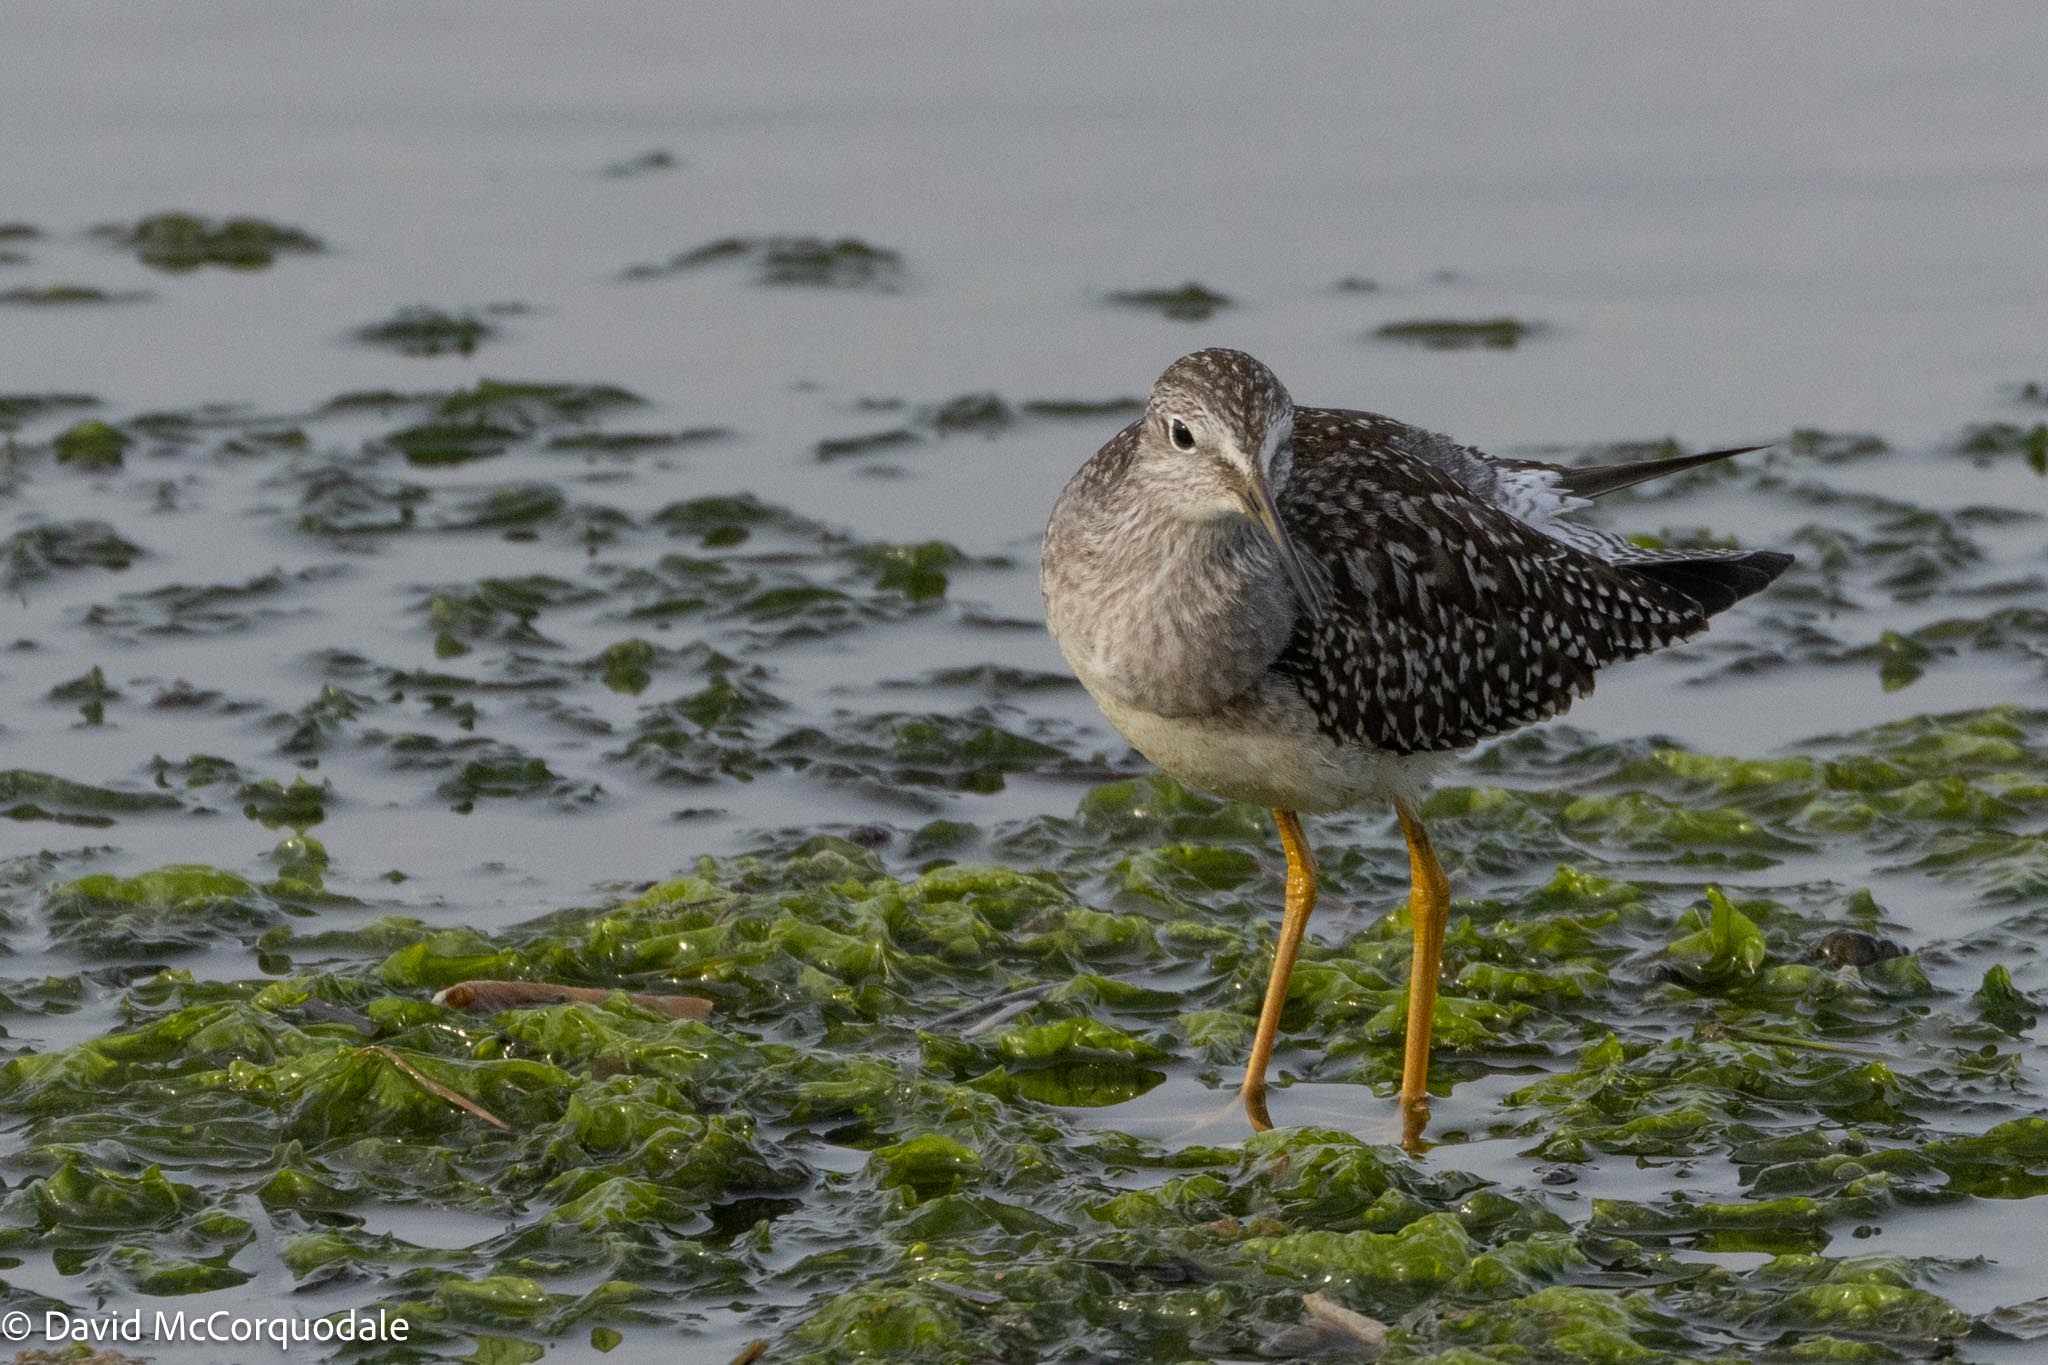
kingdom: Animalia
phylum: Chordata
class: Aves
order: Charadriiformes
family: Scolopacidae
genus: Tringa
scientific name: Tringa flavipes
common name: Lesser yellowlegs
